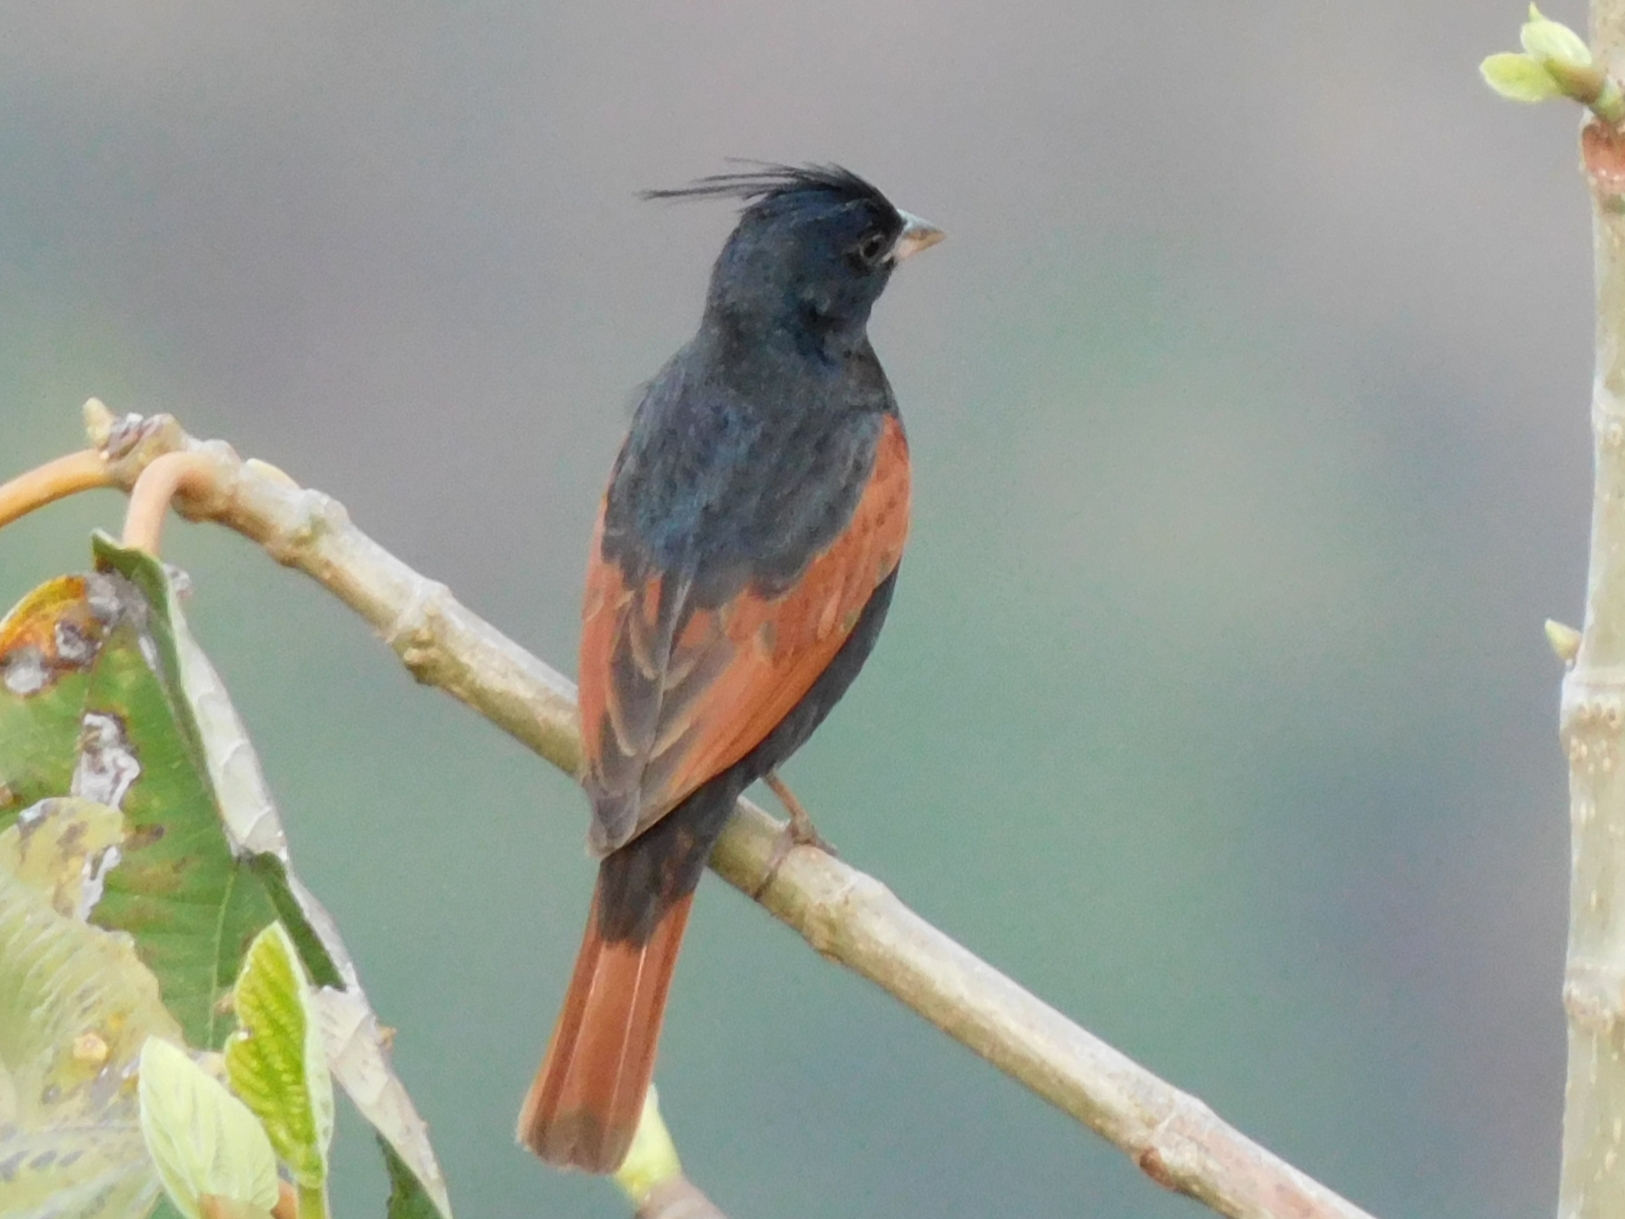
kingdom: Animalia
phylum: Chordata
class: Aves
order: Passeriformes
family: Emberizidae
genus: Emberiza
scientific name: Emberiza lathami
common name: Crested bunting
